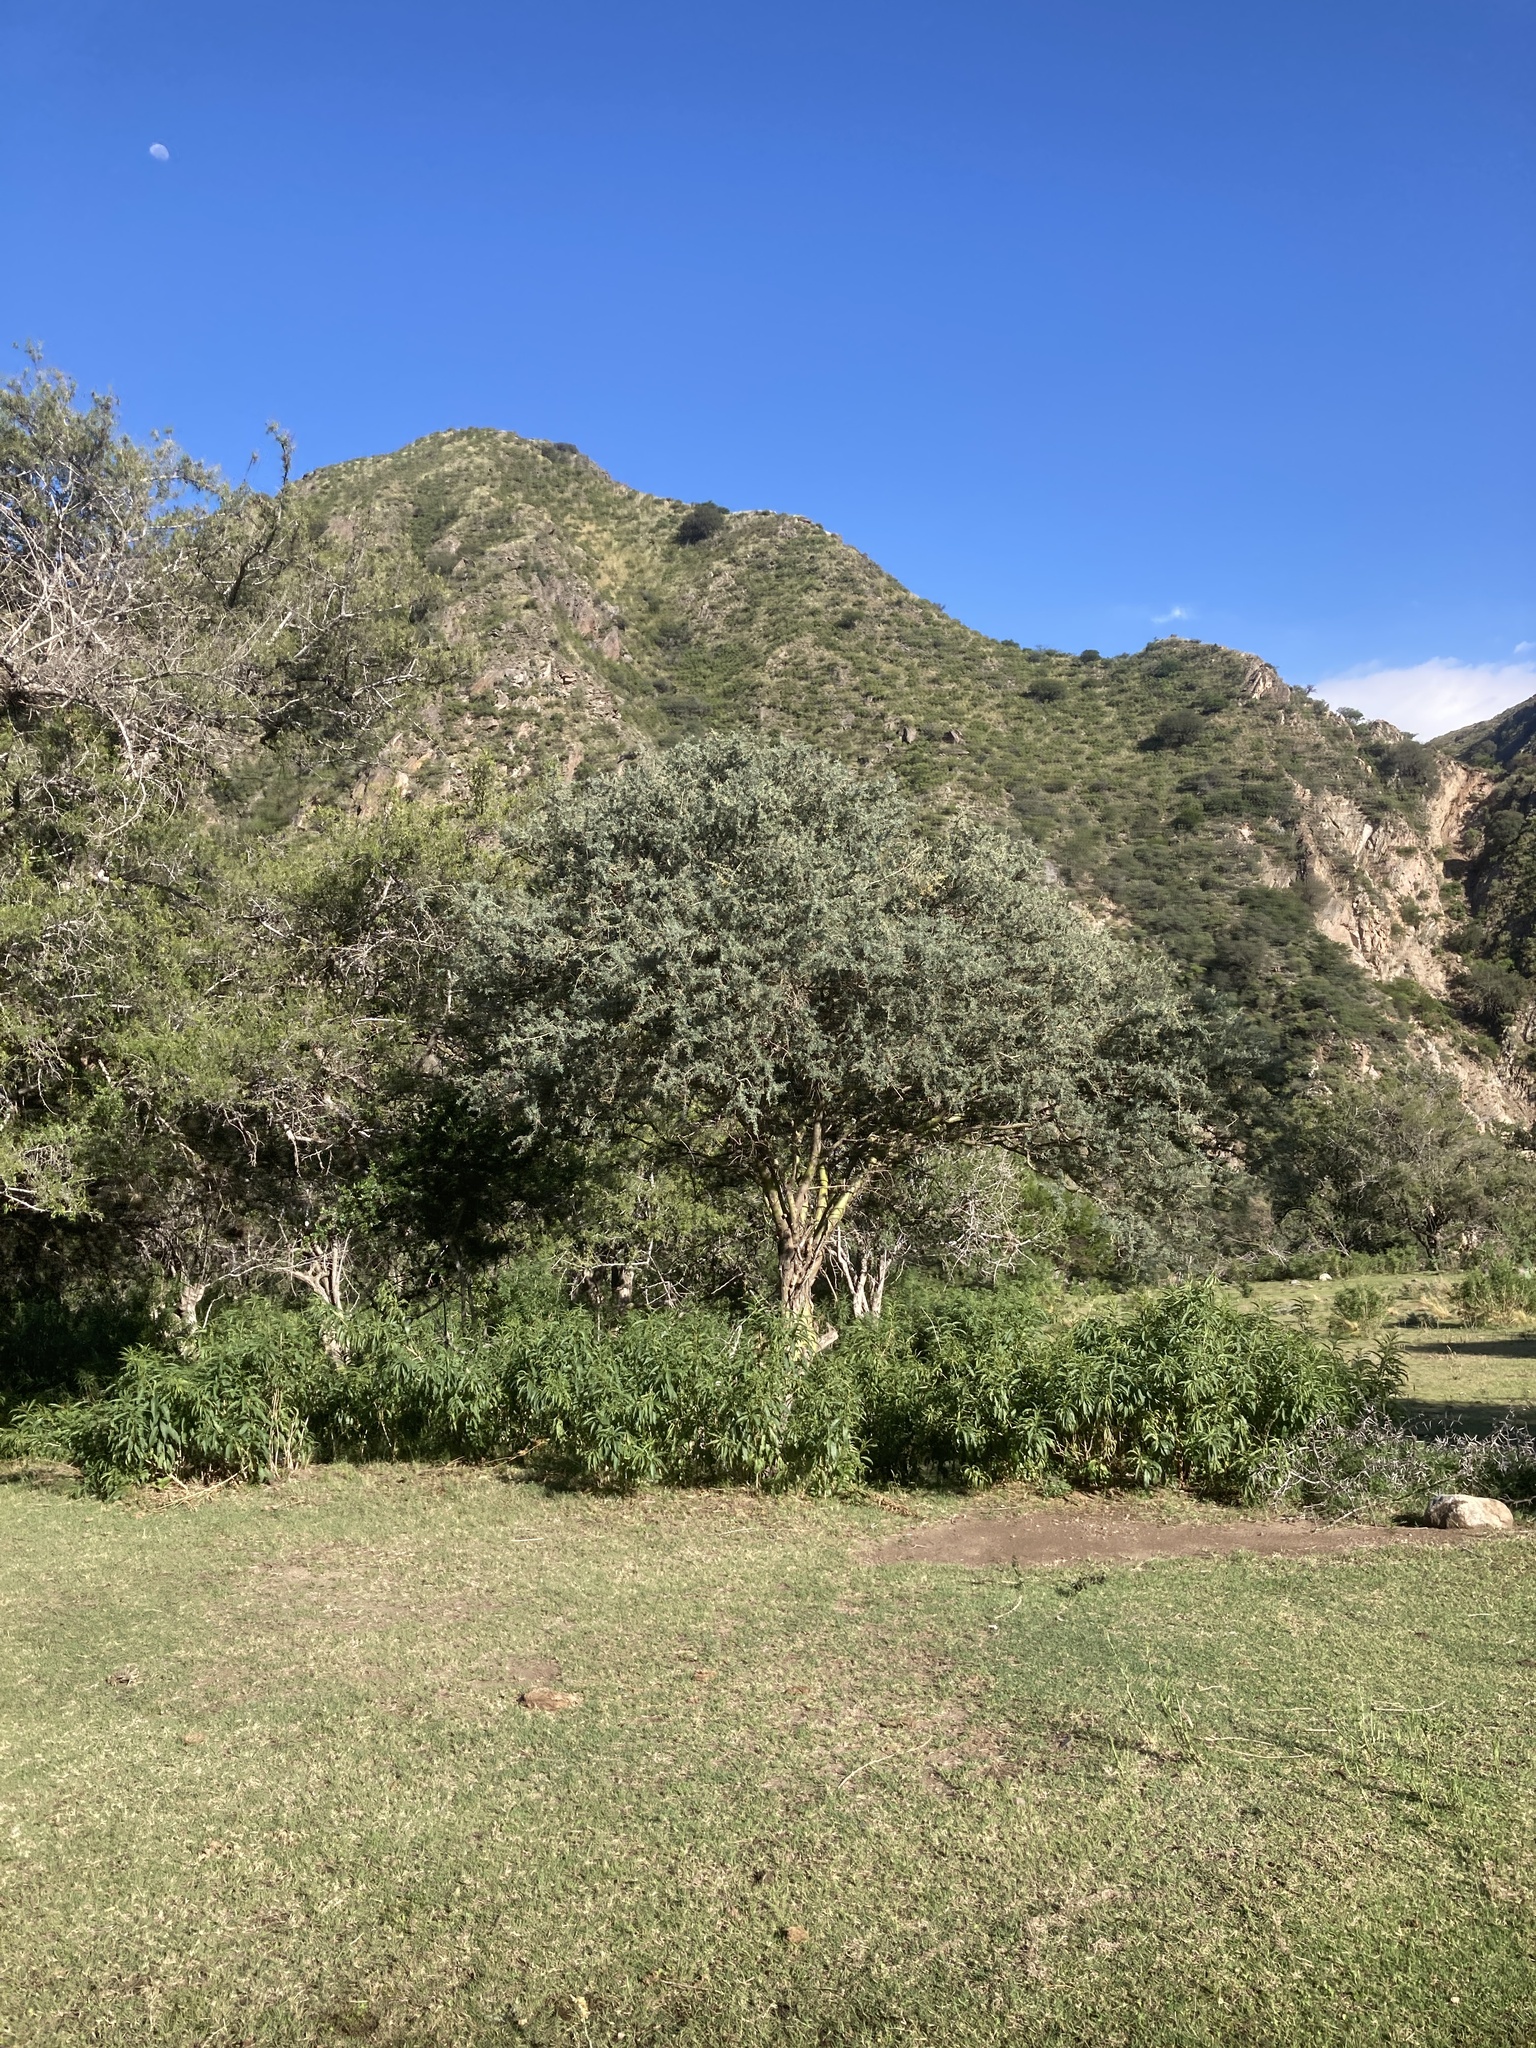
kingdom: Plantae
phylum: Tracheophyta
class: Magnoliopsida
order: Fabales
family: Fabaceae
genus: Geoffroea
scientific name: Geoffroea decorticans
